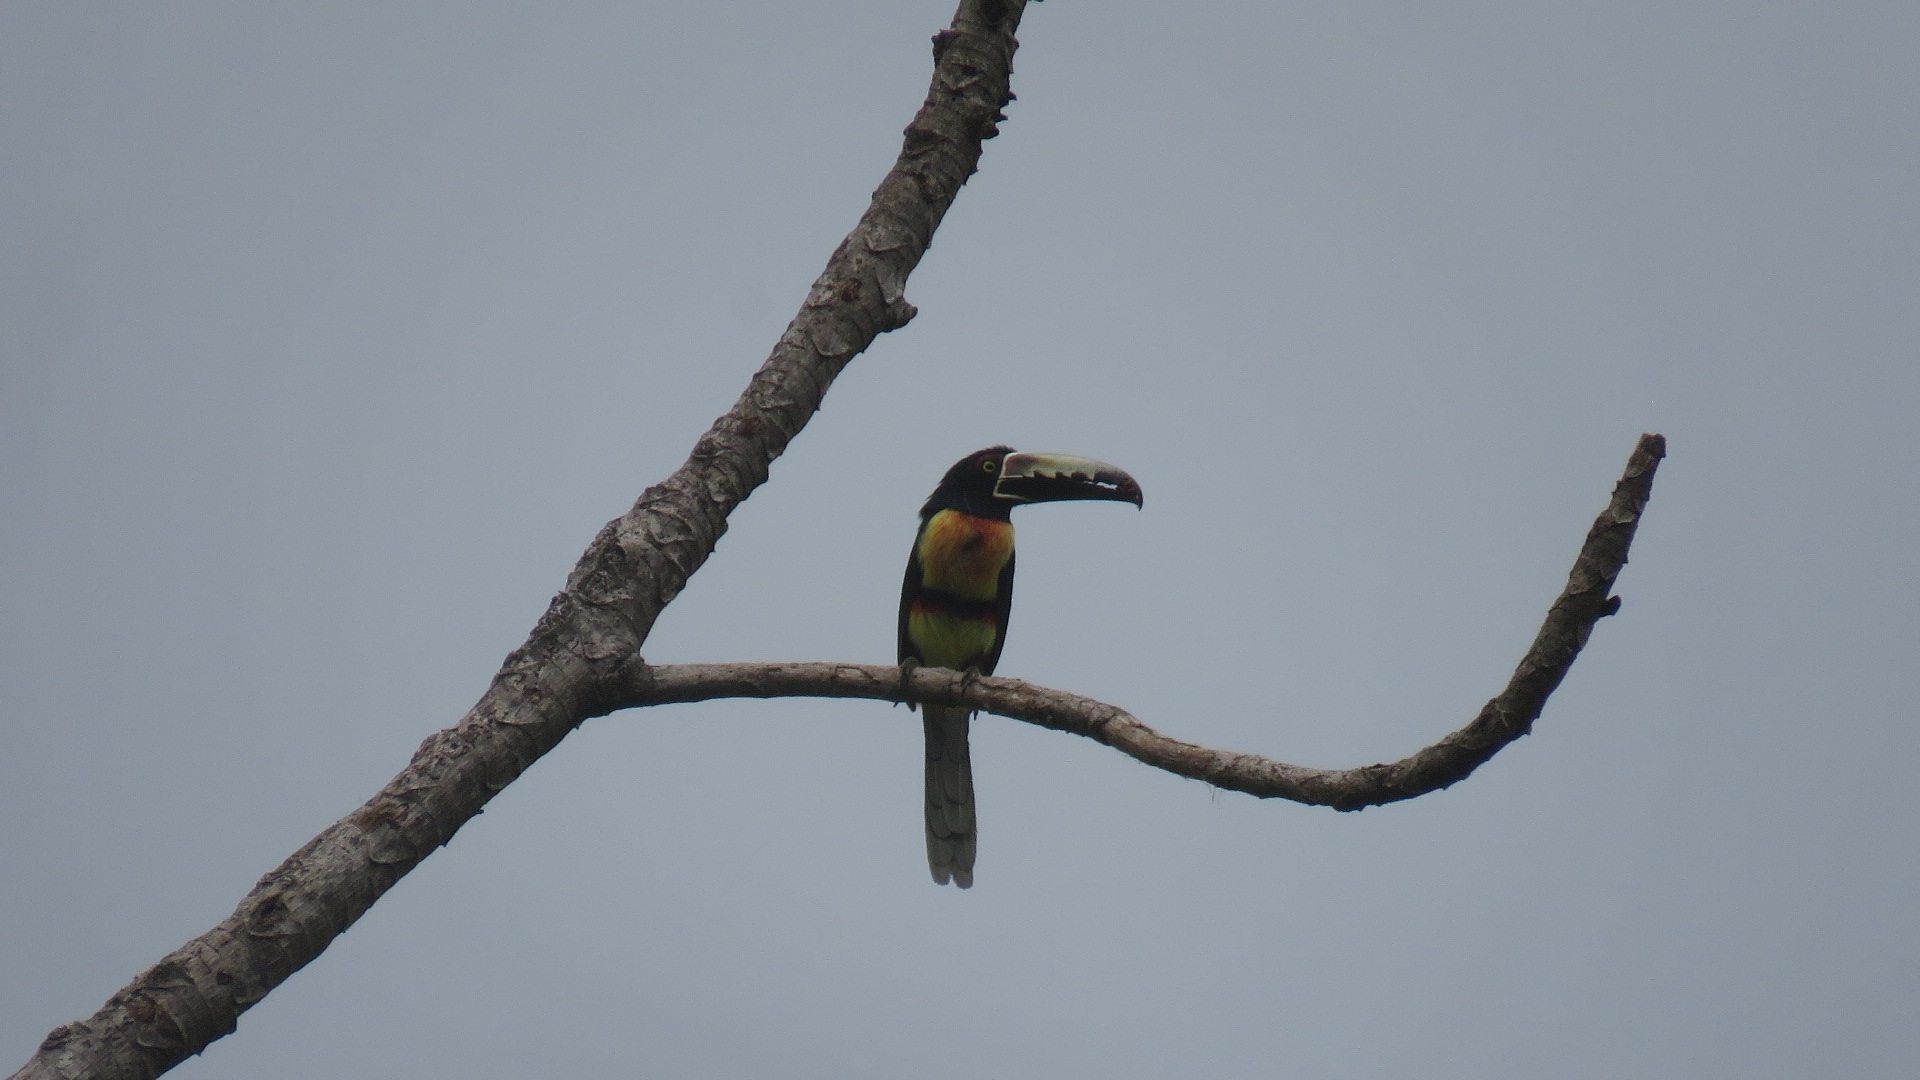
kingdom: Animalia
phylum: Chordata
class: Aves
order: Piciformes
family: Ramphastidae
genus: Pteroglossus
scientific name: Pteroglossus torquatus
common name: Collared aracari
